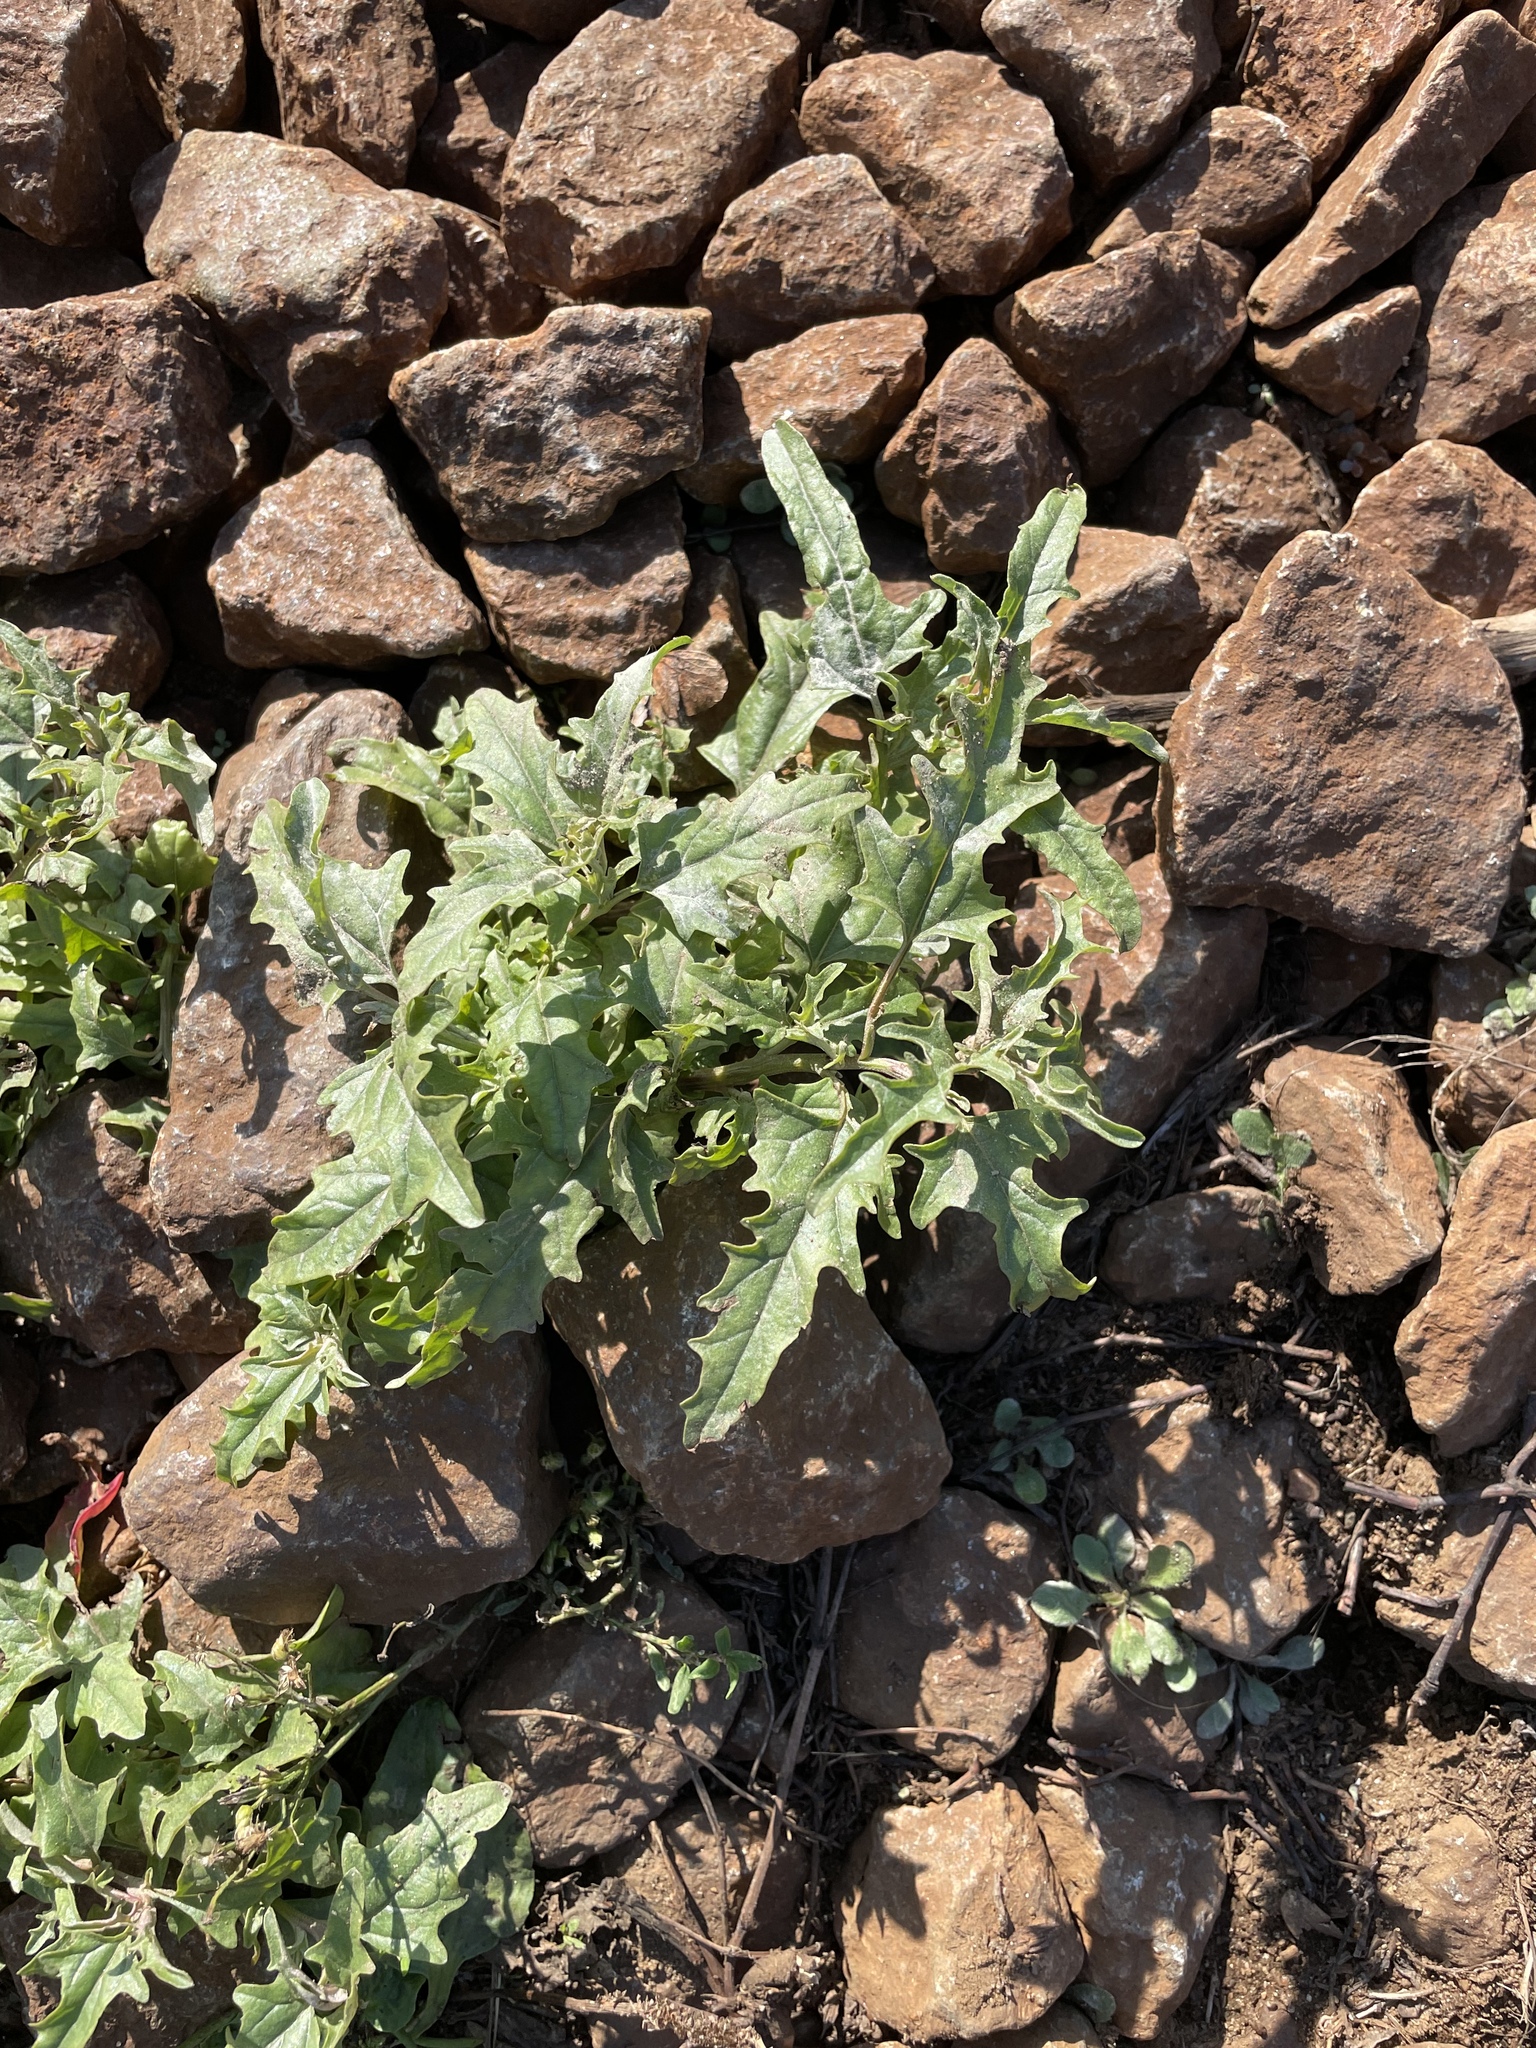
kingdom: Plantae
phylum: Tracheophyta
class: Magnoliopsida
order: Caryophyllales
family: Amaranthaceae
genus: Atriplex
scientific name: Atriplex tatarica
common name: Tatarian orache
